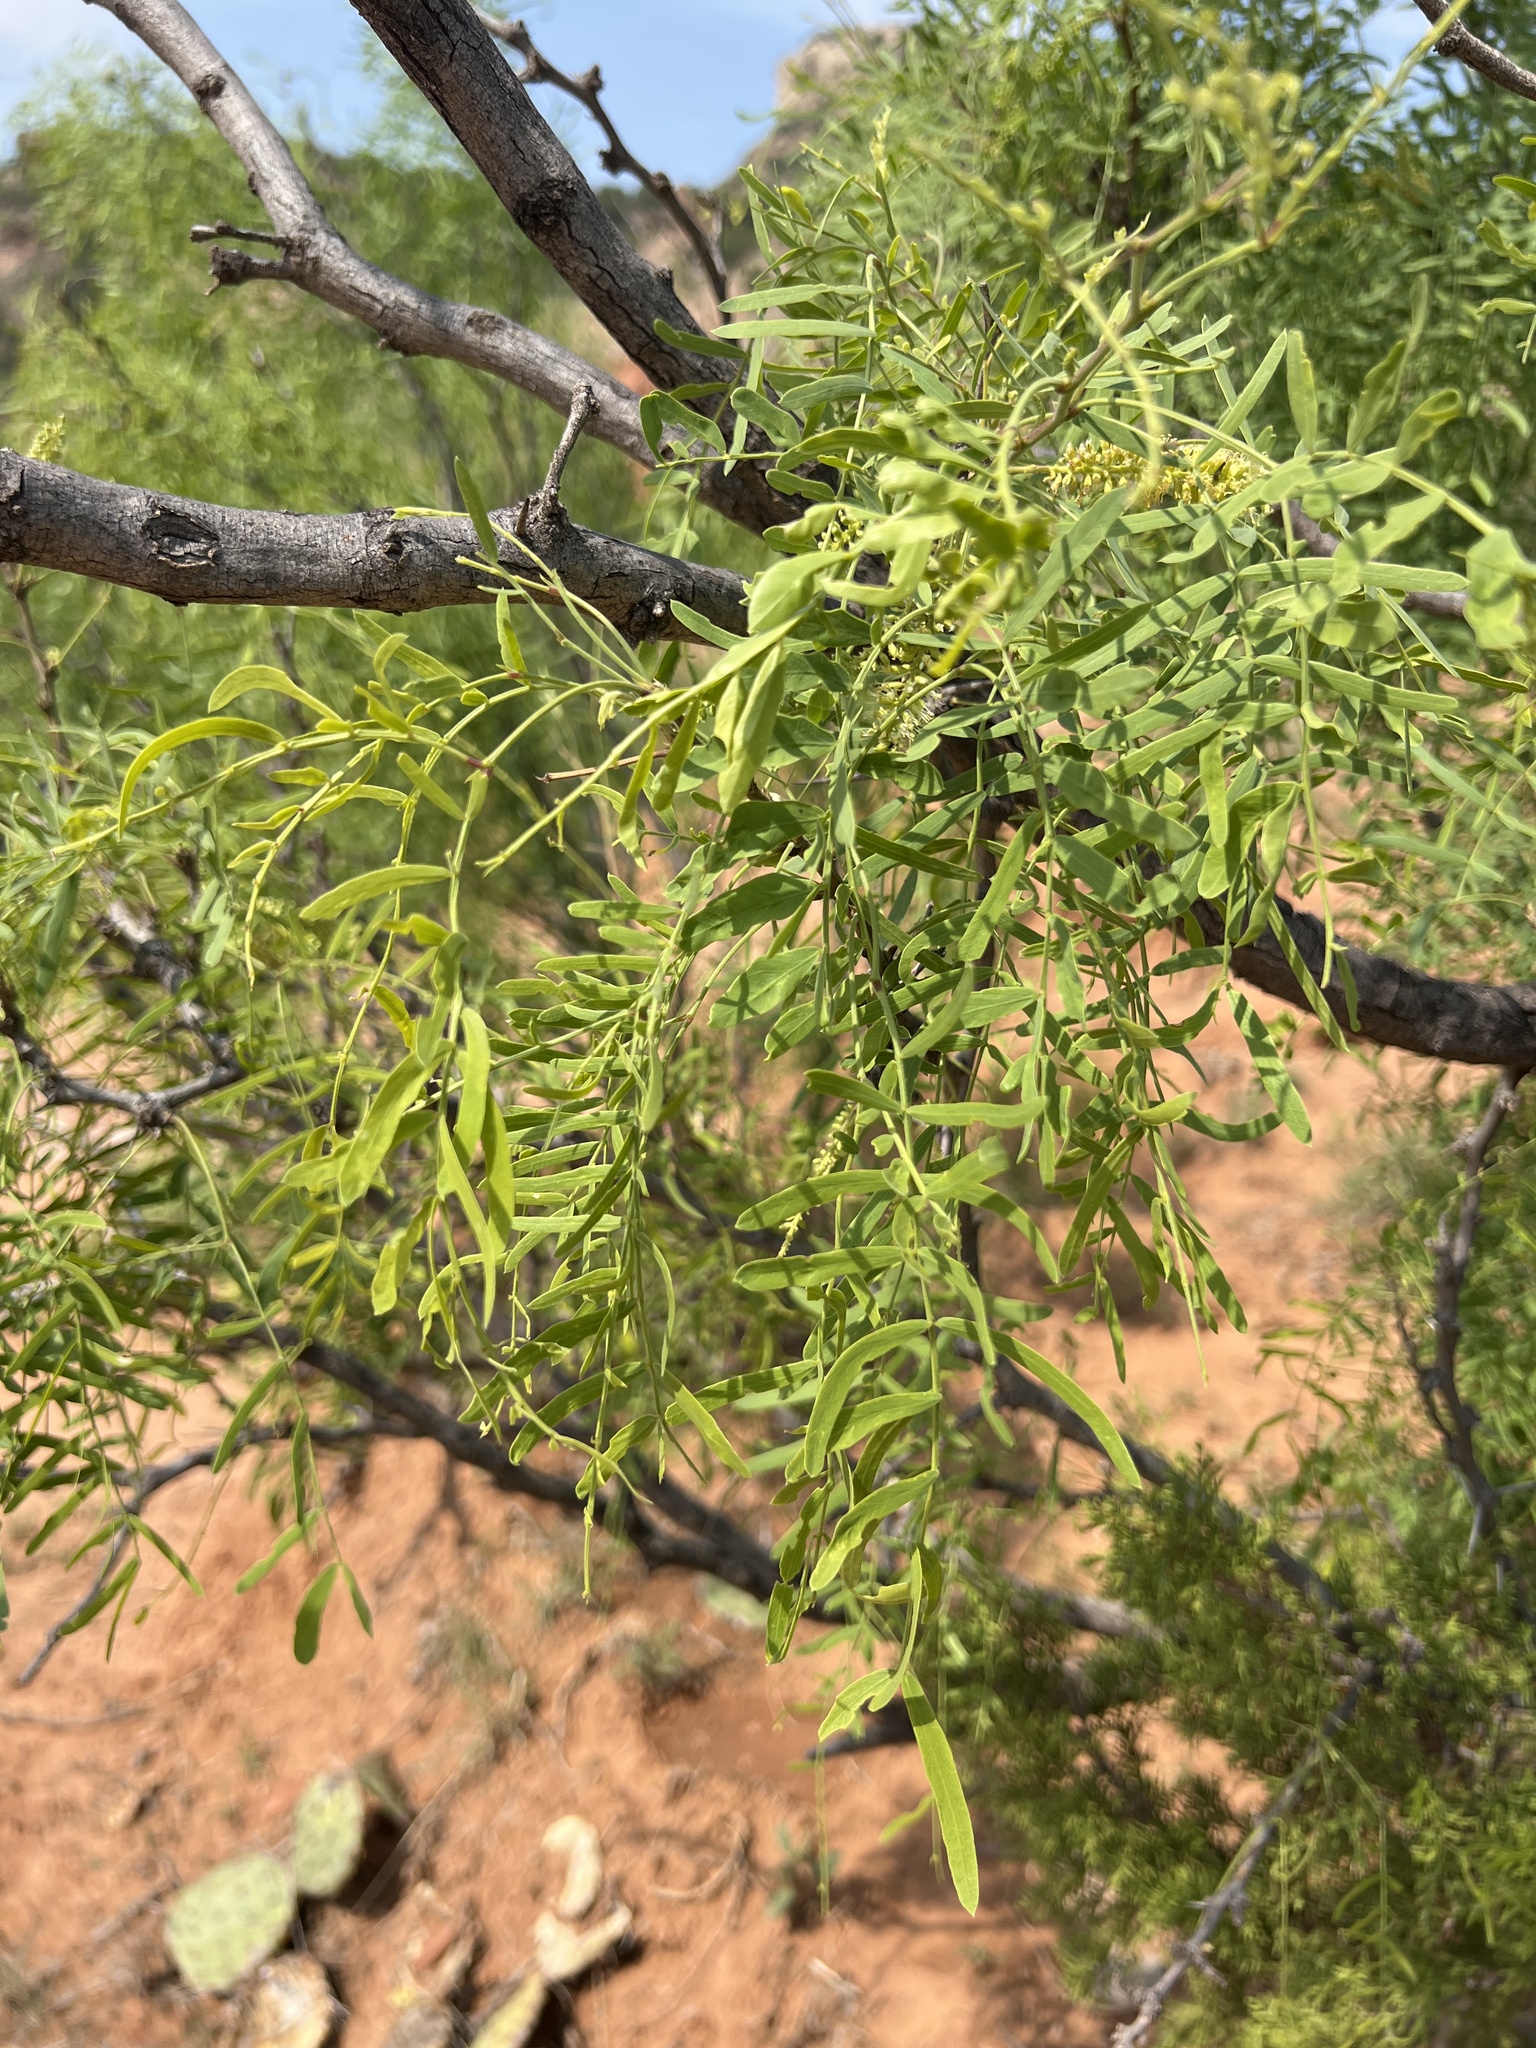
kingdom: Plantae
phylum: Tracheophyta
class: Magnoliopsida
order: Fabales
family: Fabaceae
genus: Prosopis
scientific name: Prosopis glandulosa
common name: Honey mesquite
